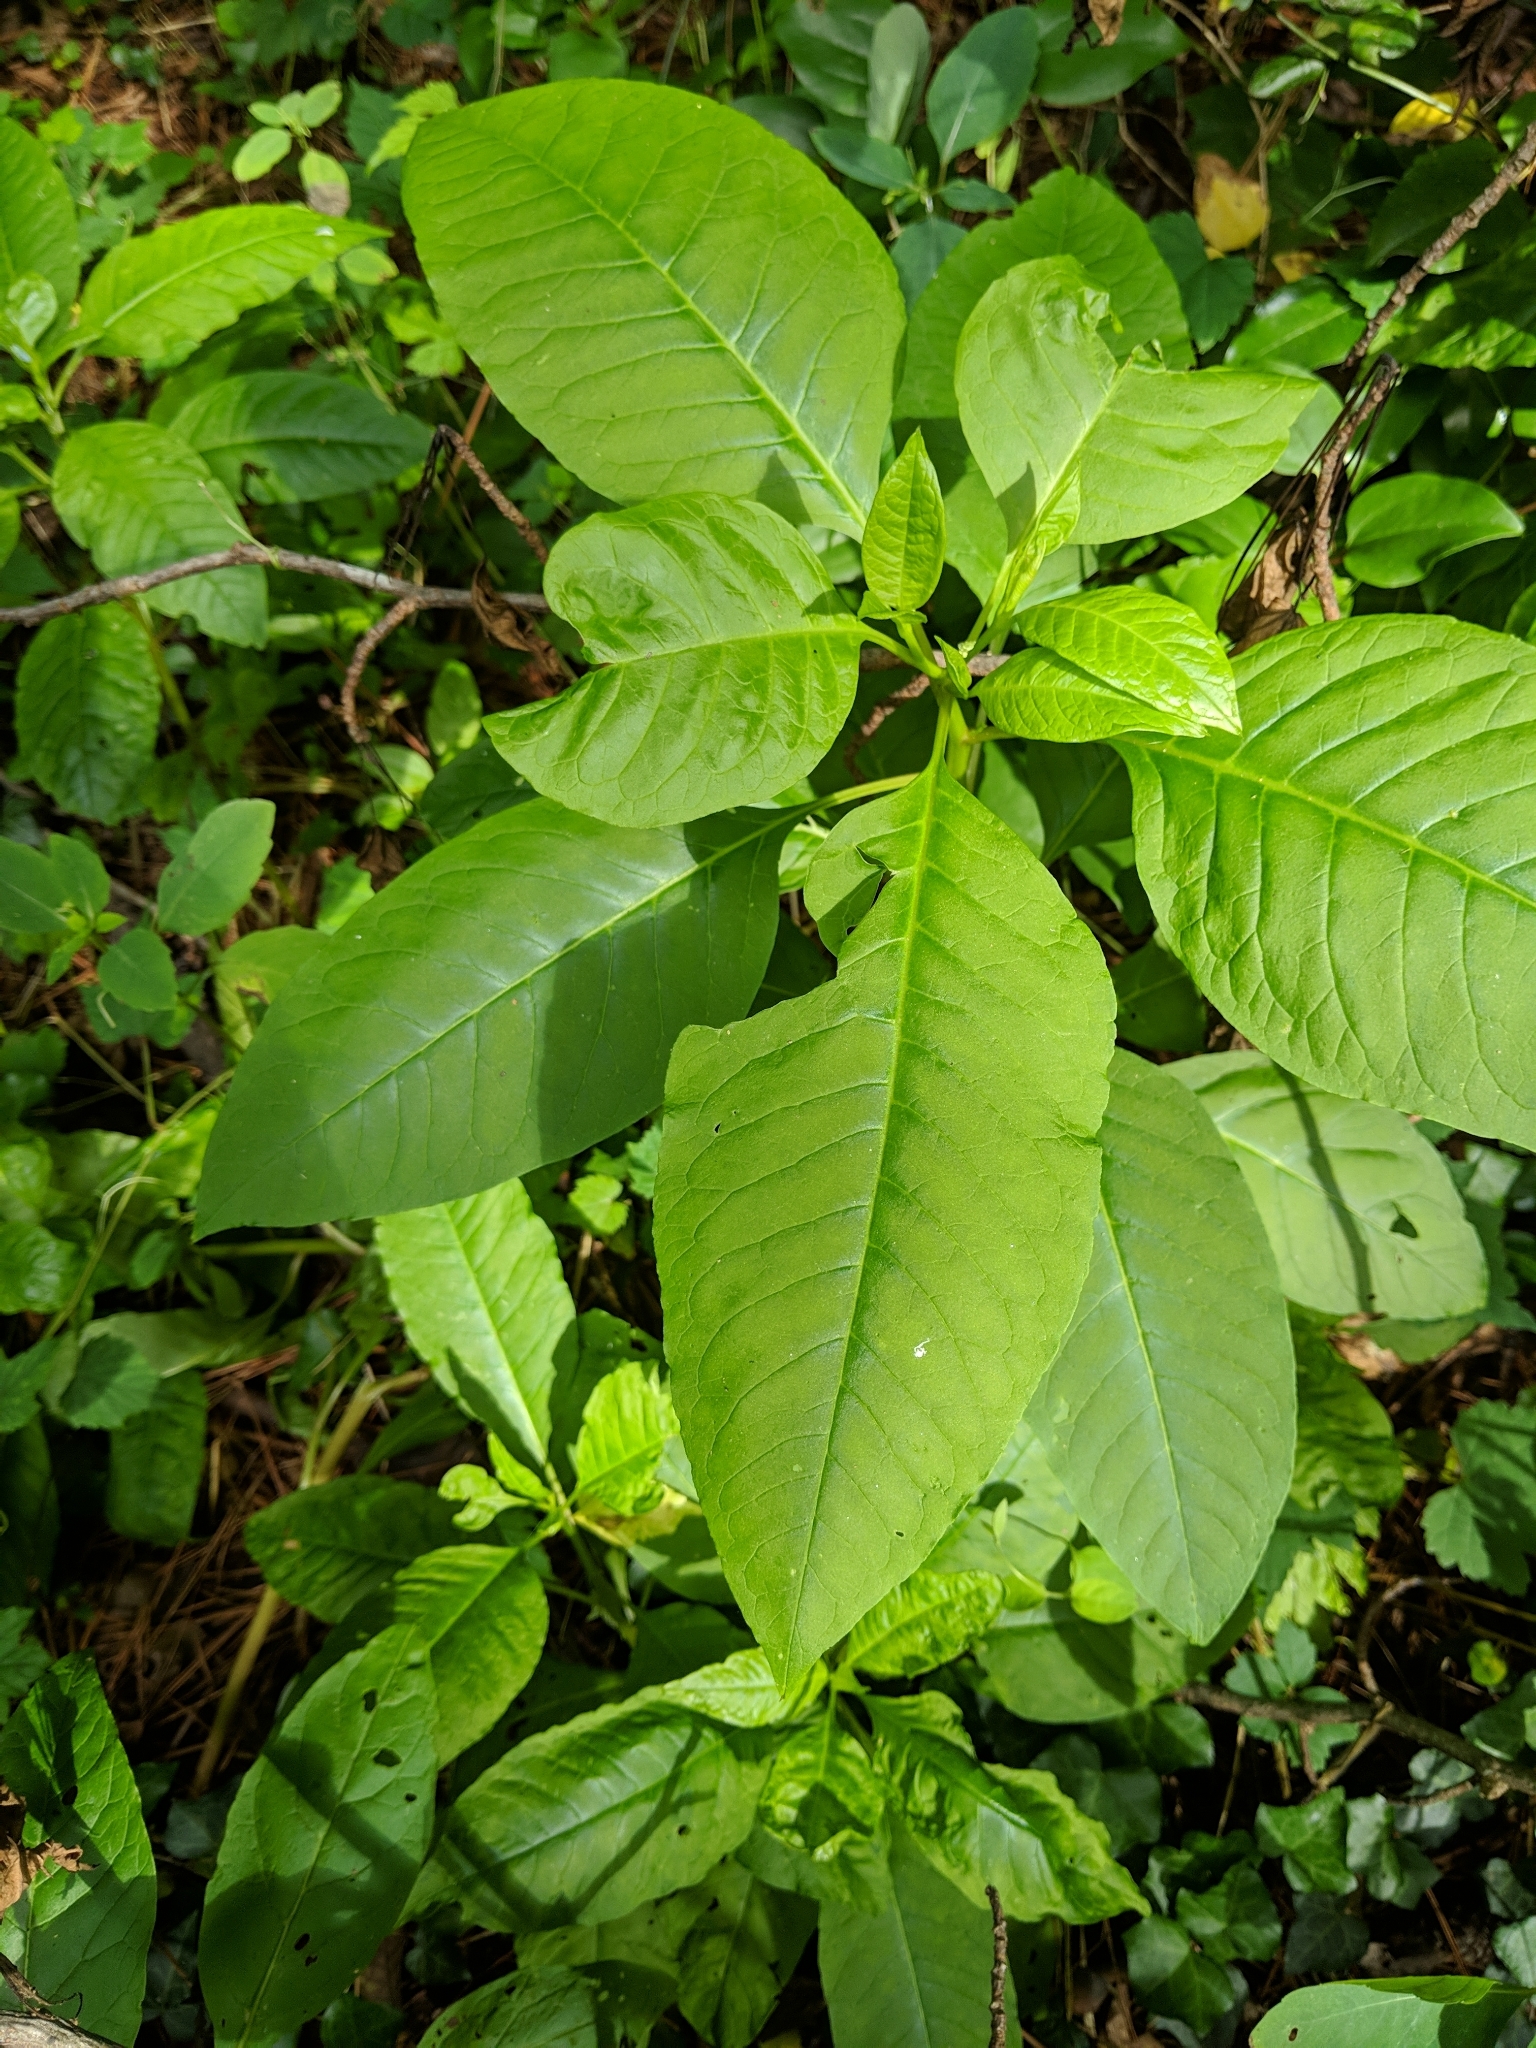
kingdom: Plantae
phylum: Tracheophyta
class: Magnoliopsida
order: Caryophyllales
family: Phytolaccaceae
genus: Phytolacca
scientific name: Phytolacca americana
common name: American pokeweed
